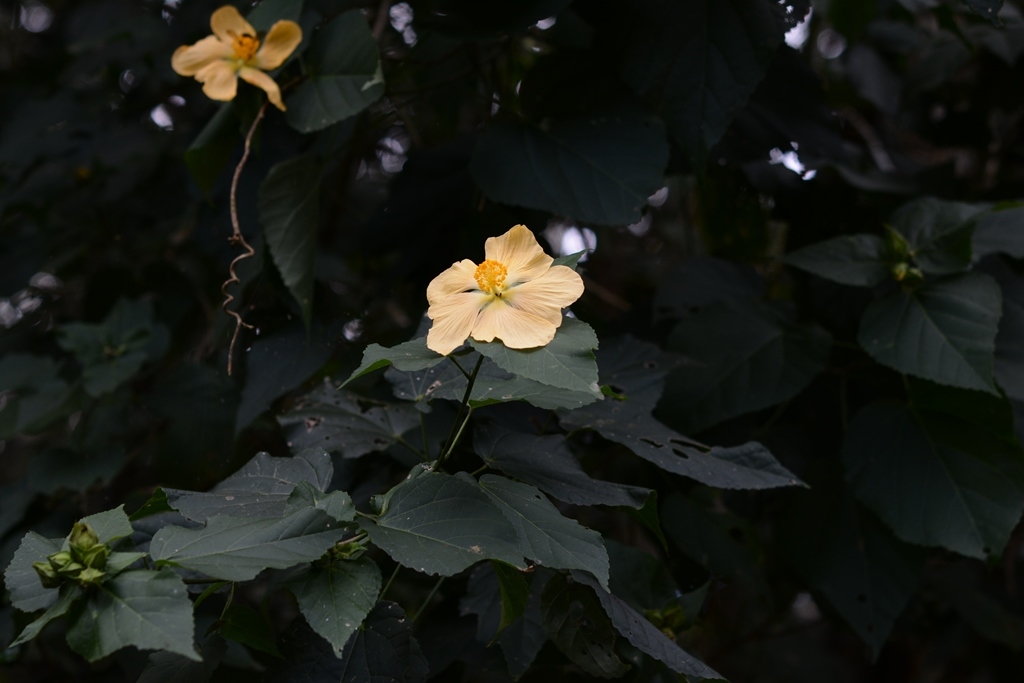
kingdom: Plantae
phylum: Tracheophyta
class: Magnoliopsida
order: Malvales
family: Malvaceae
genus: Dendrosida
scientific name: Dendrosida sharpiana
